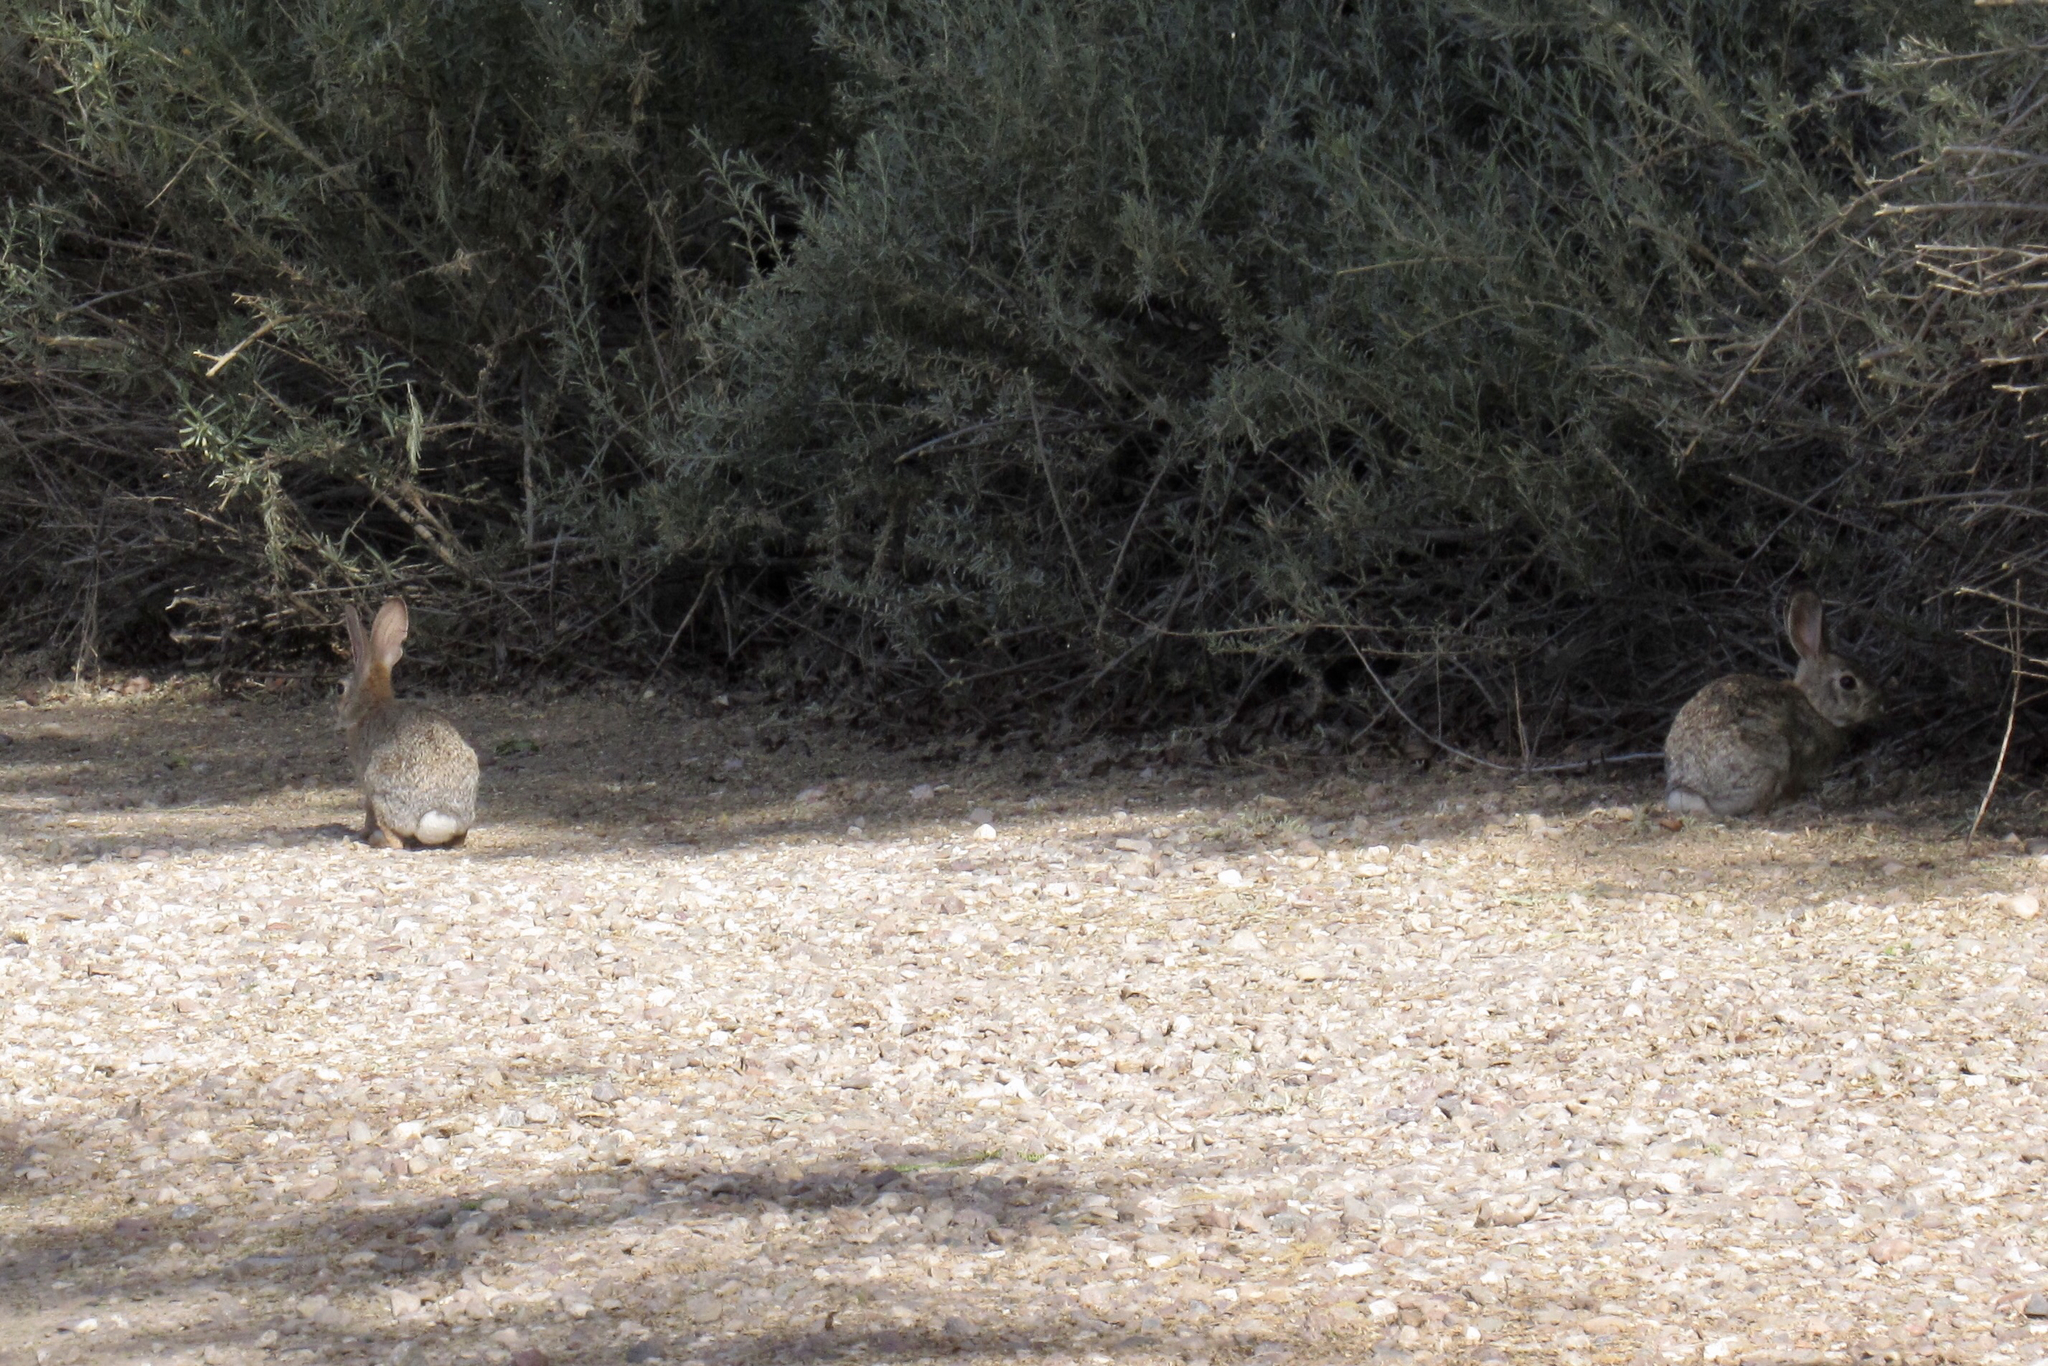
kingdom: Animalia
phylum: Chordata
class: Mammalia
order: Lagomorpha
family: Leporidae
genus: Sylvilagus
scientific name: Sylvilagus audubonii
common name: Desert cottontail
